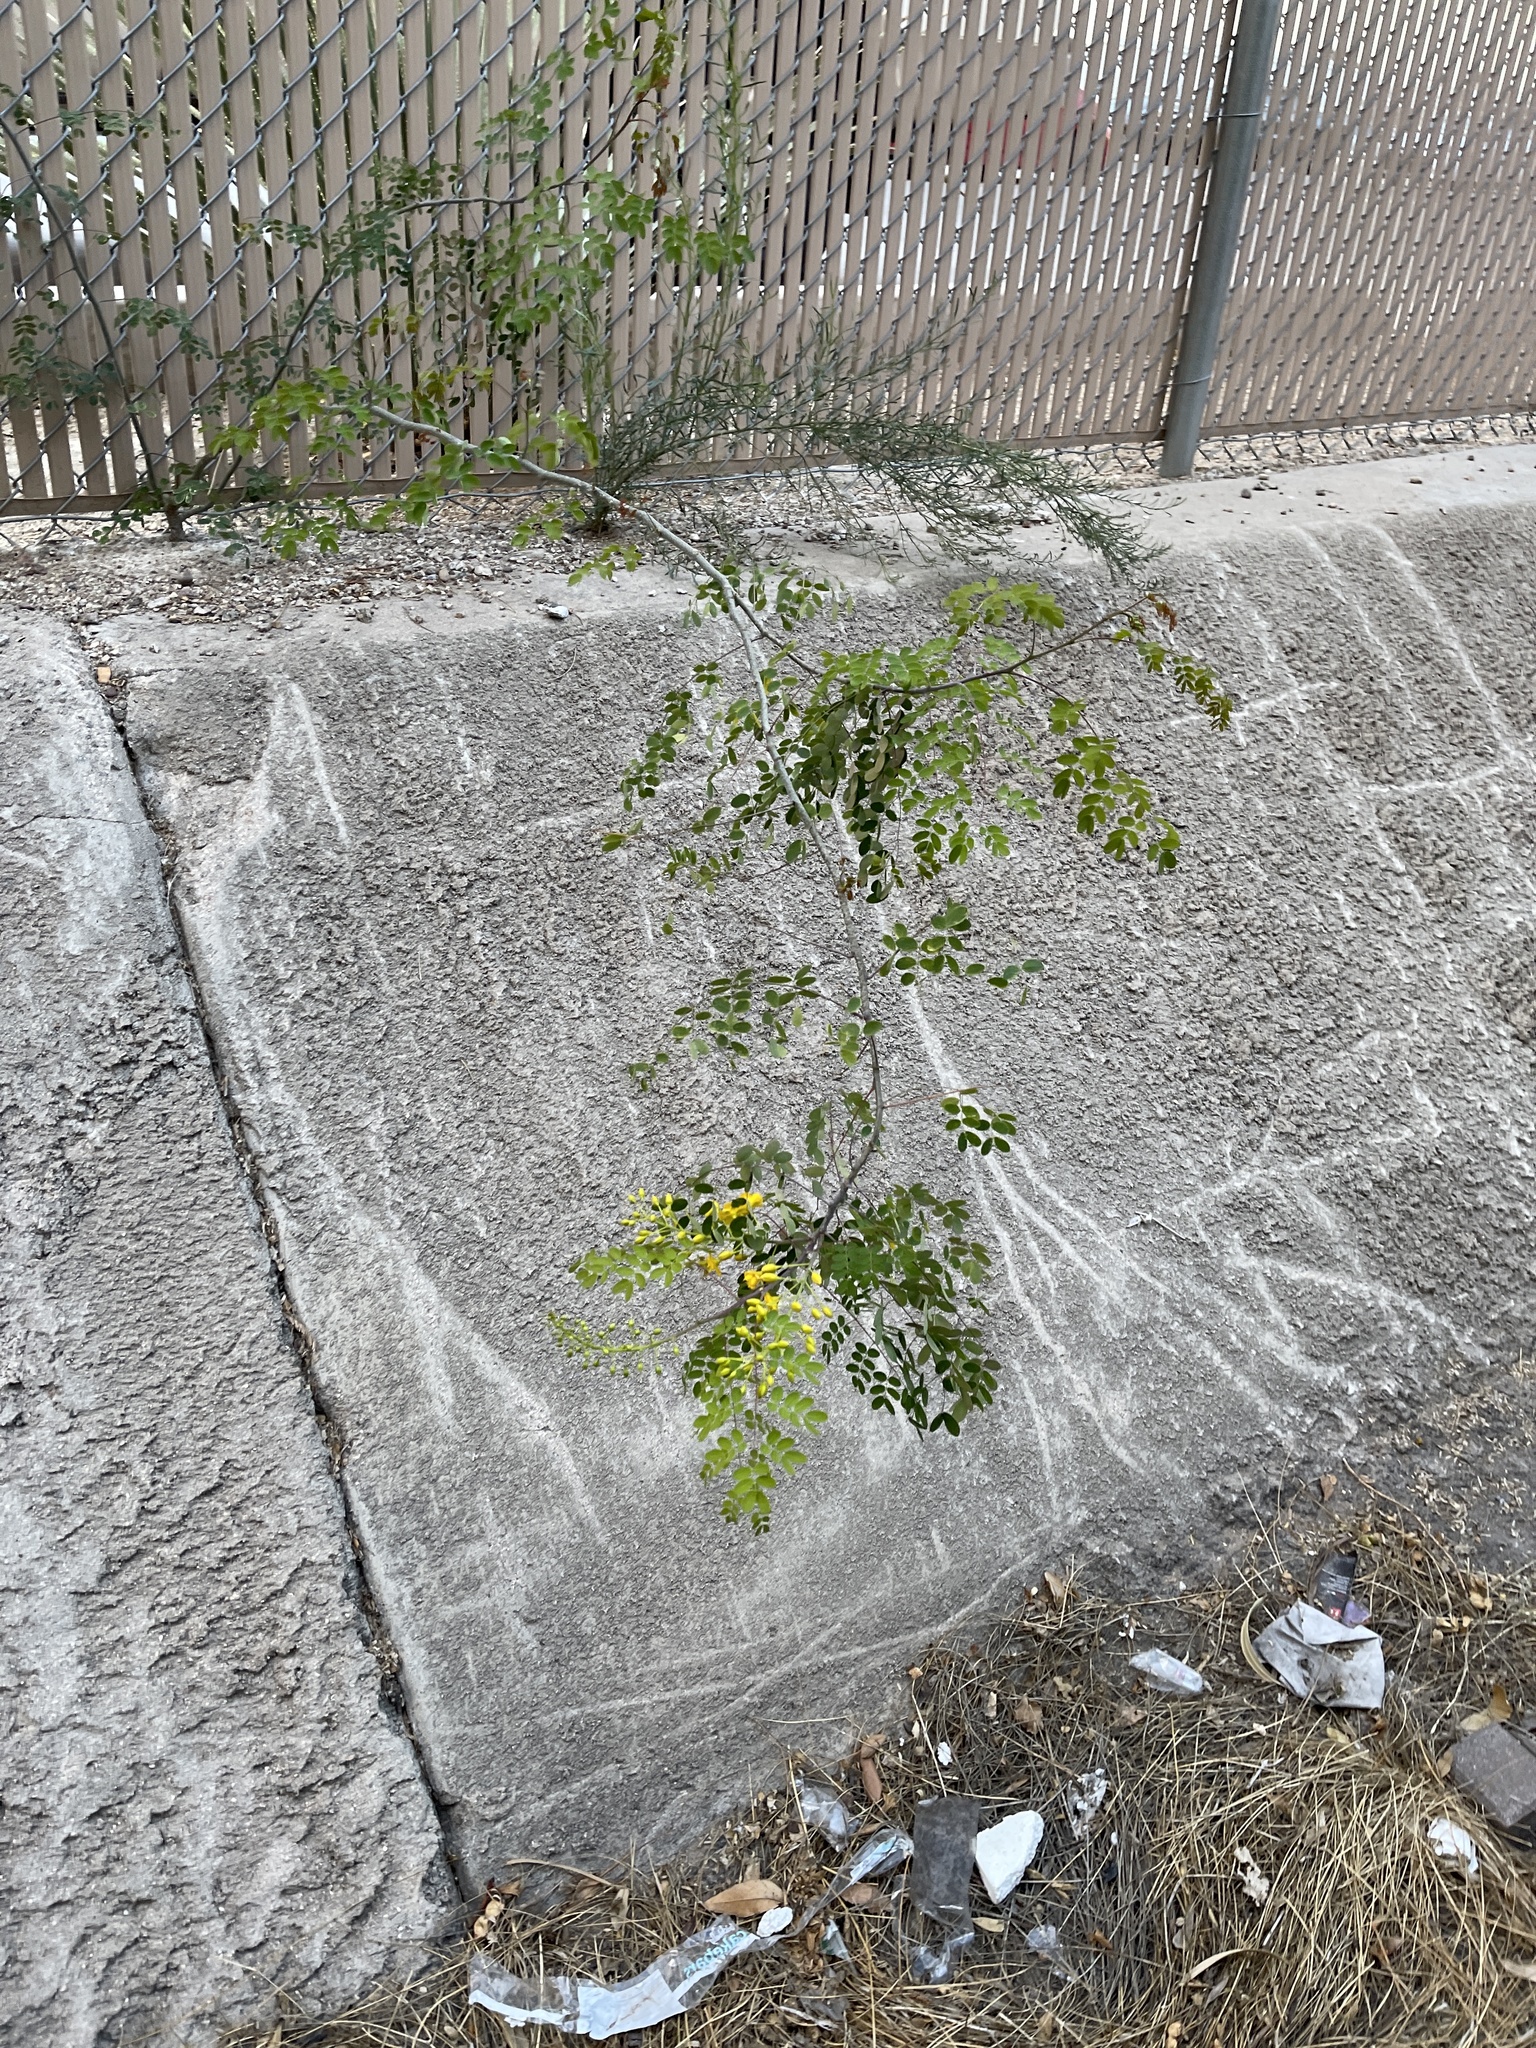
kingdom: Plantae
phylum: Tracheophyta
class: Magnoliopsida
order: Fabales
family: Fabaceae
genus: Erythrostemon
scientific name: Erythrostemon mexicanus
